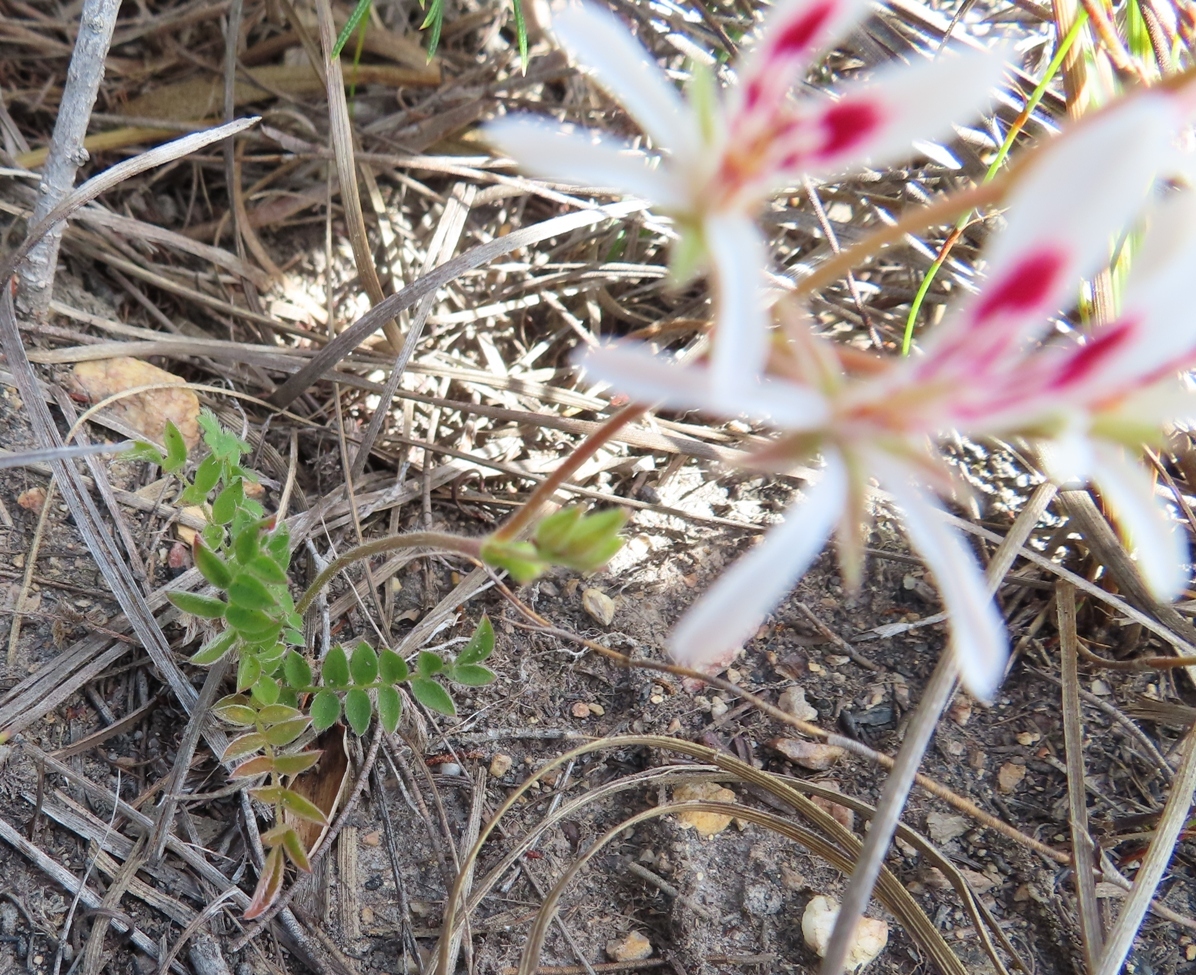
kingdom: Plantae
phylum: Tracheophyta
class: Magnoliopsida
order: Geraniales
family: Geraniaceae
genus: Pelargonium
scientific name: Pelargonium pinnatum
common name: Pinnated pelargonium
